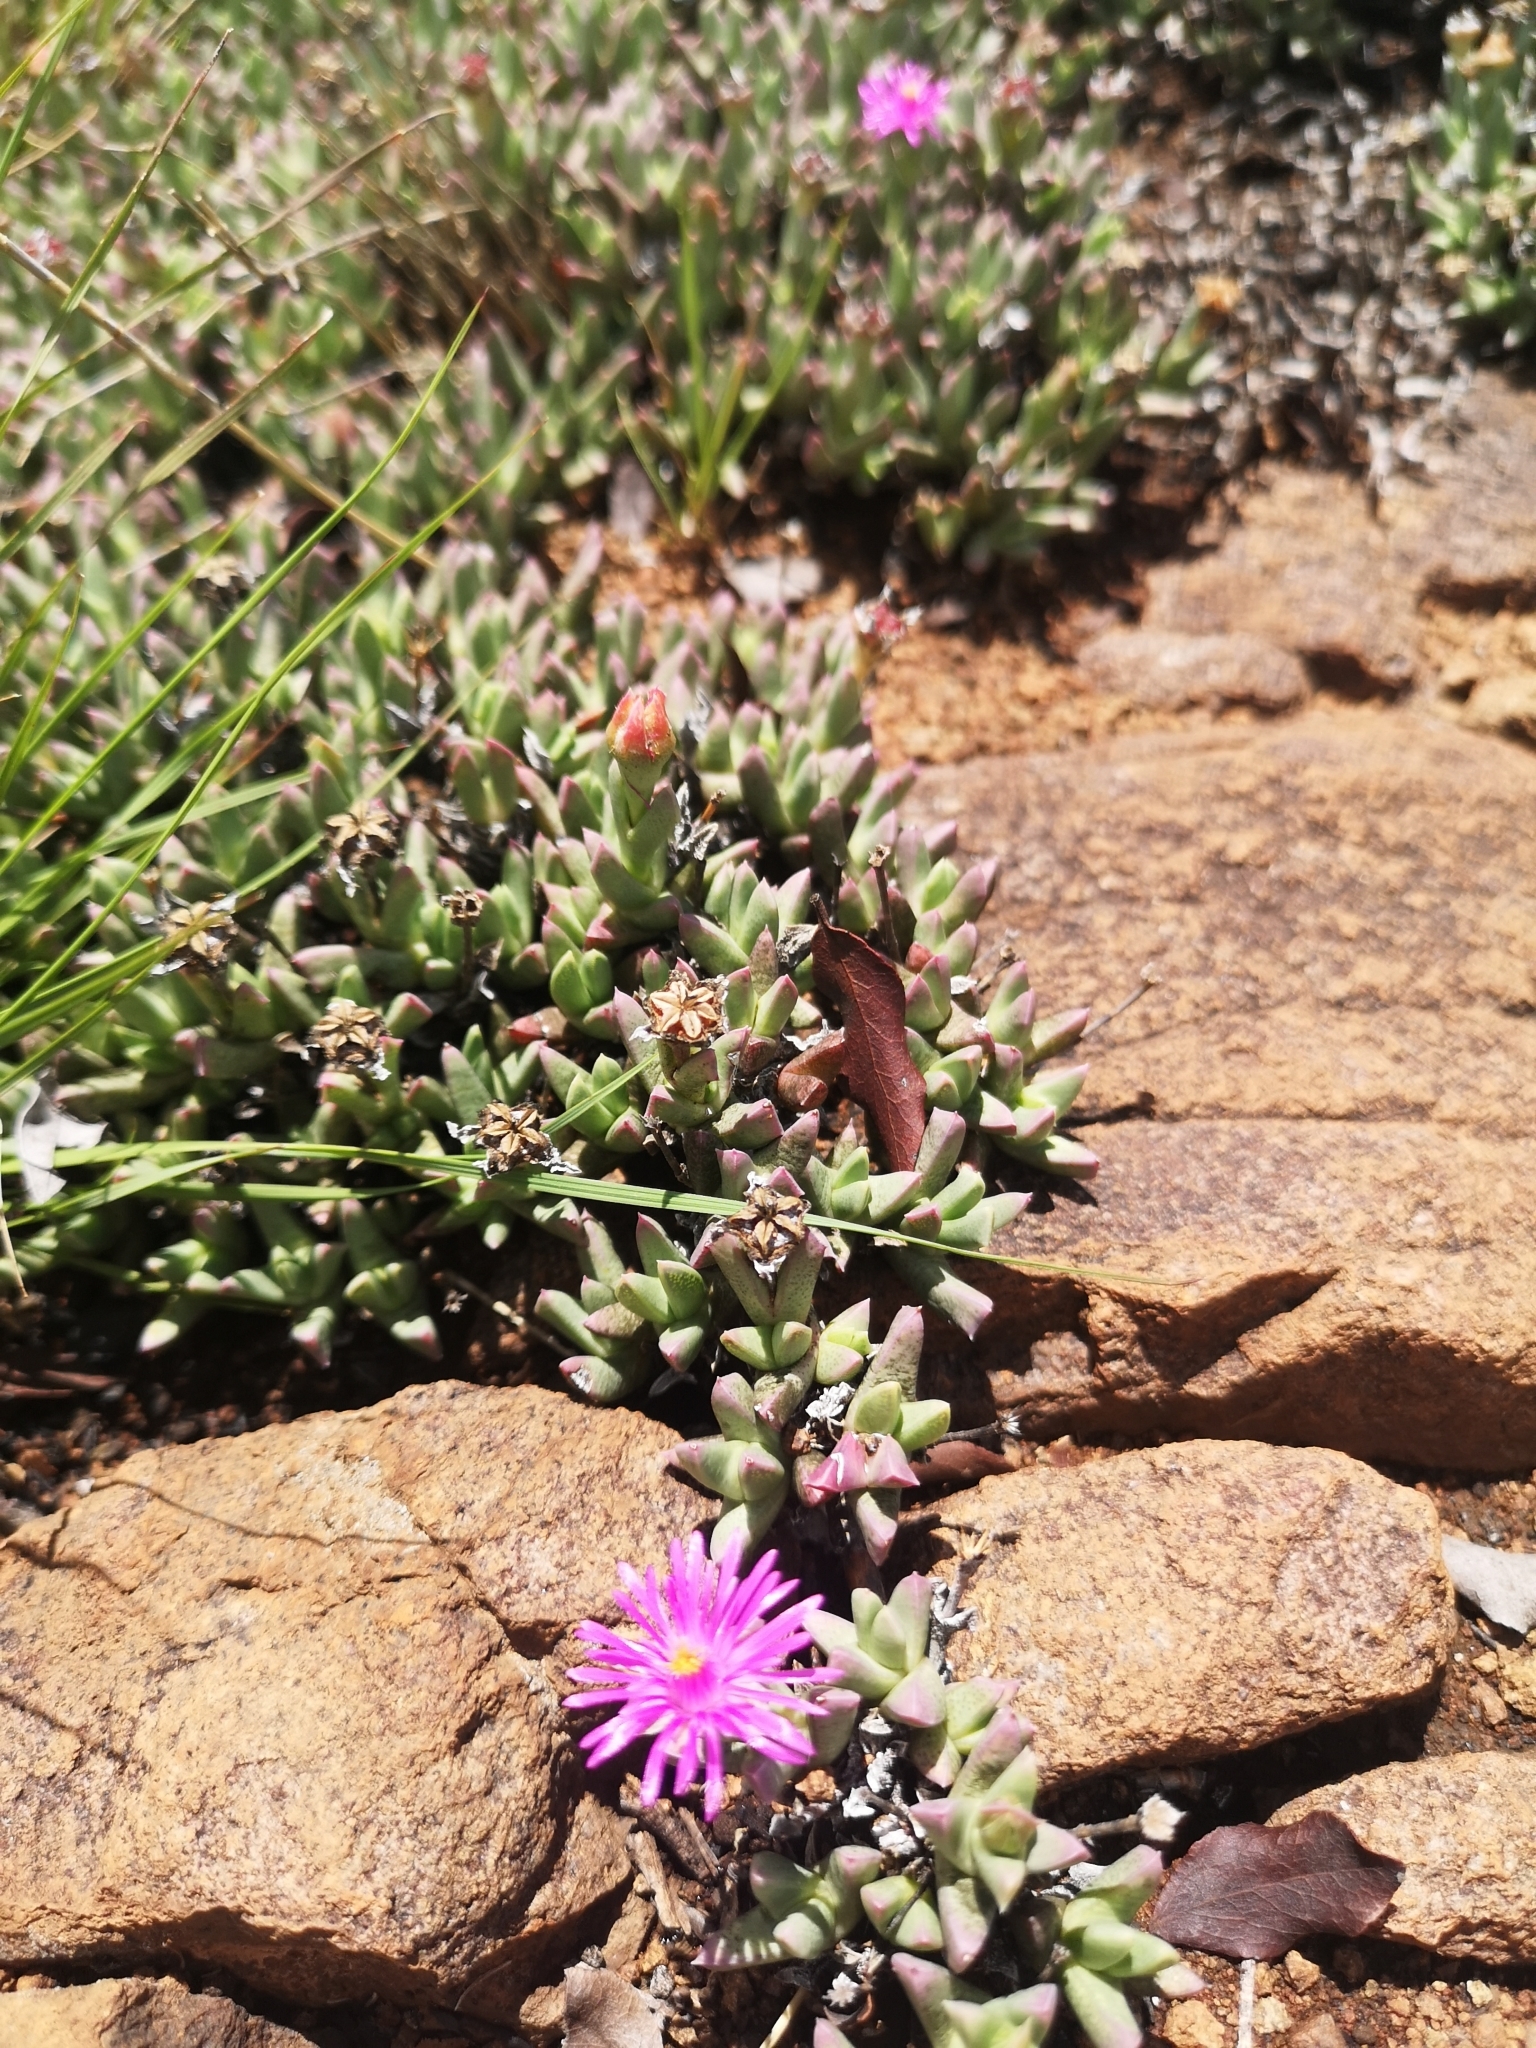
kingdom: Plantae
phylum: Tracheophyta
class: Magnoliopsida
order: Caryophyllales
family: Aizoaceae
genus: Ruschia
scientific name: Ruschia rigens
